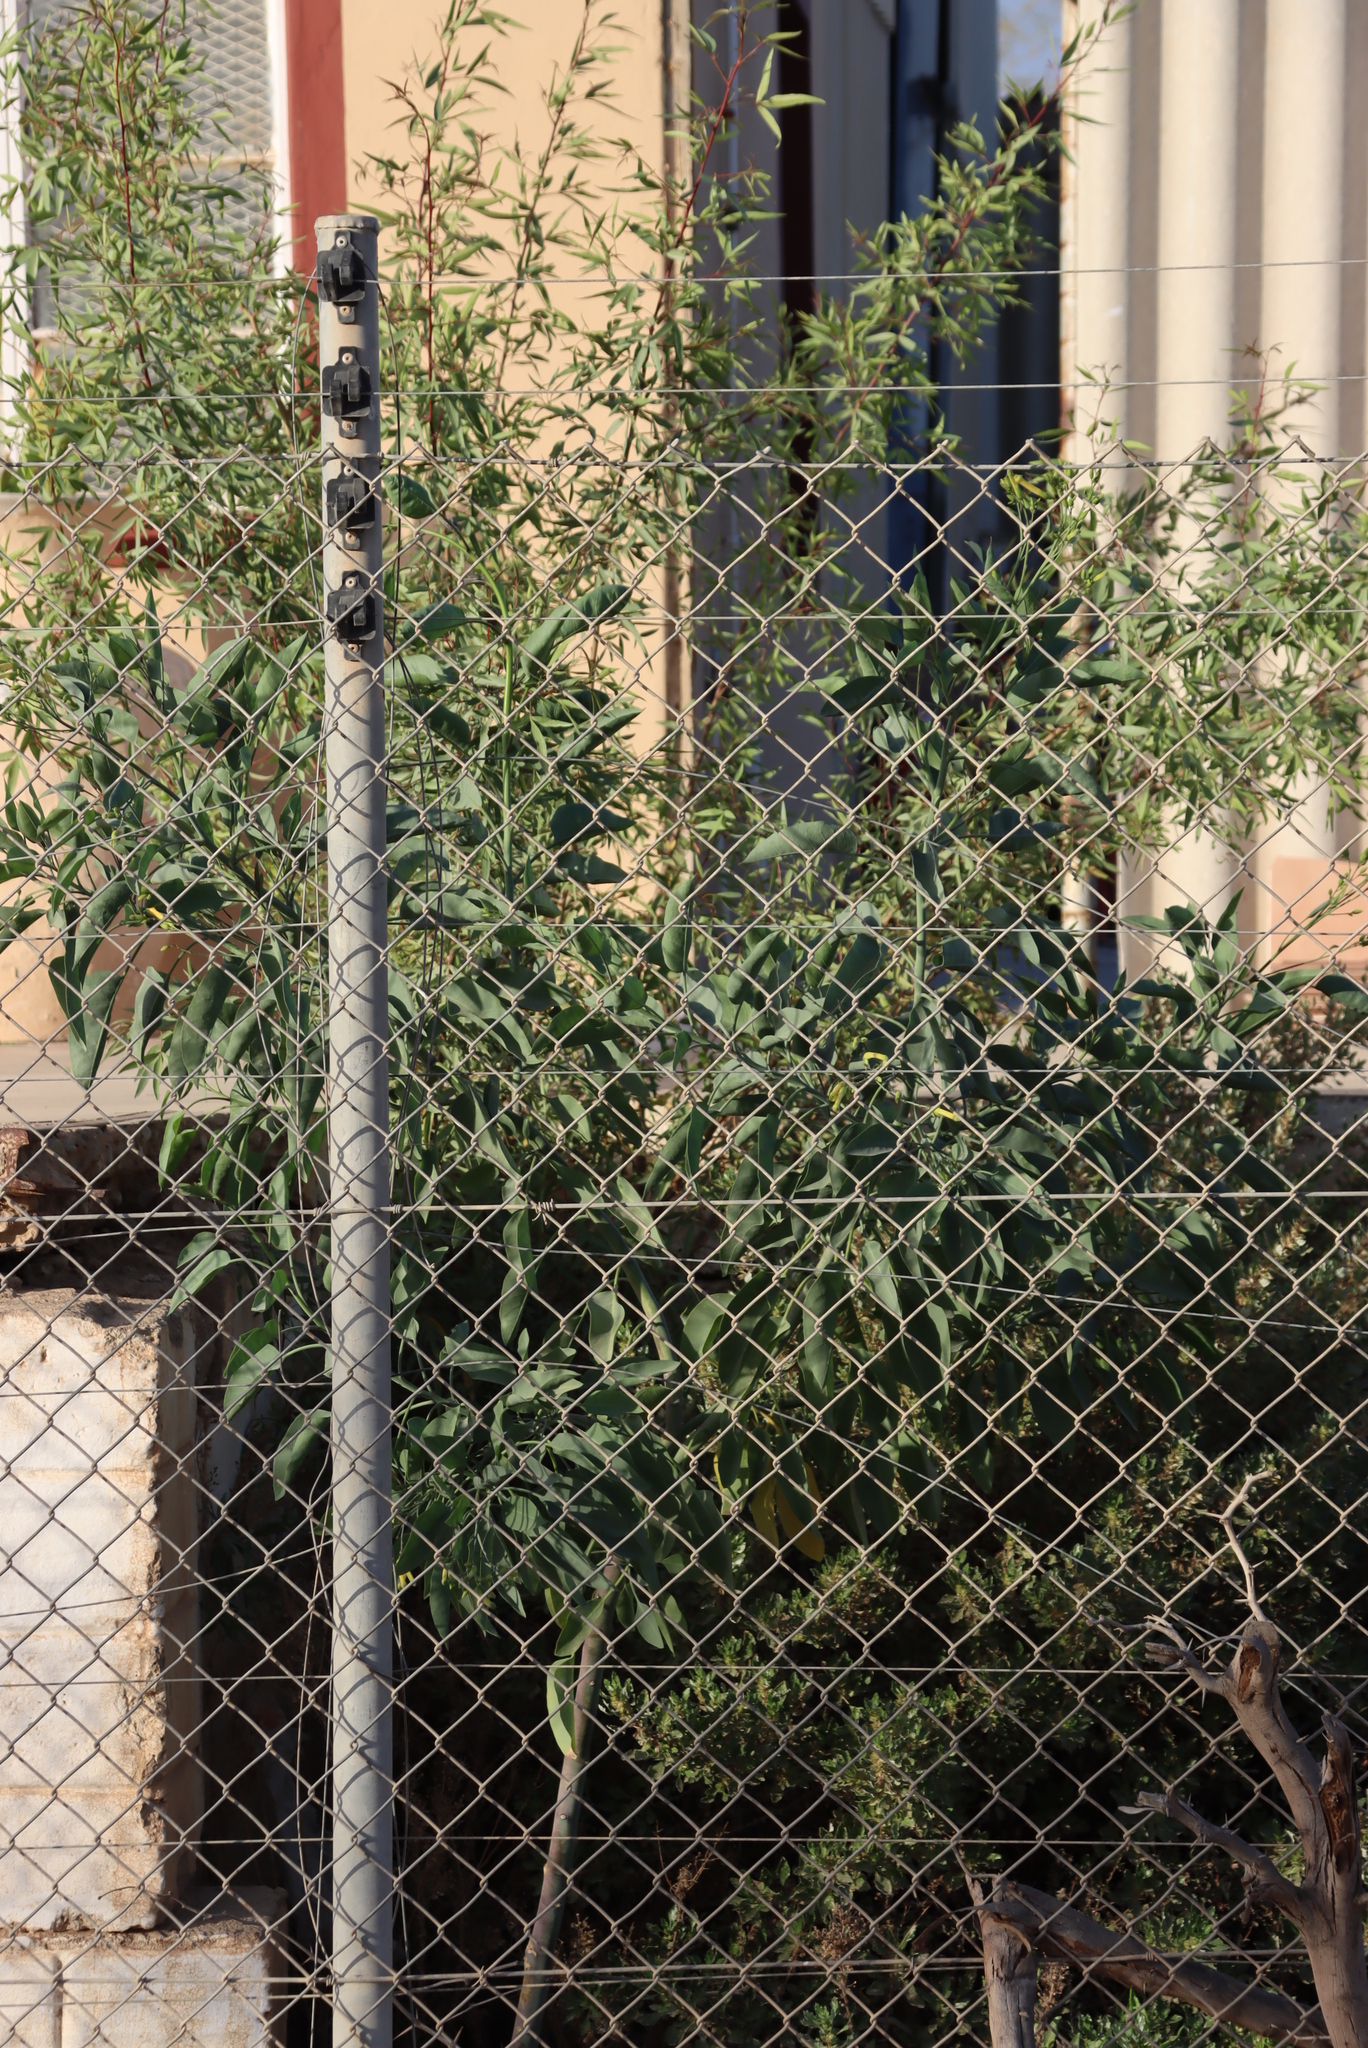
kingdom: Plantae
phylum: Tracheophyta
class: Magnoliopsida
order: Solanales
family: Solanaceae
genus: Nicotiana
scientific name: Nicotiana glauca
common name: Tree tobacco
